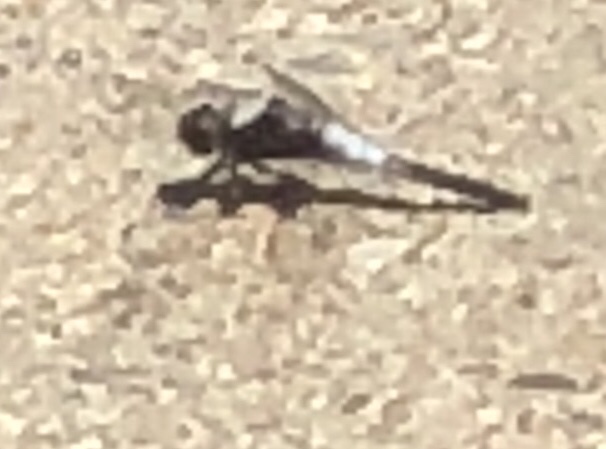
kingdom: Animalia
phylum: Arthropoda
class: Insecta
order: Odonata
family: Libellulidae
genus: Ladona
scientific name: Ladona julia
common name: Chalk-fronted corporal
